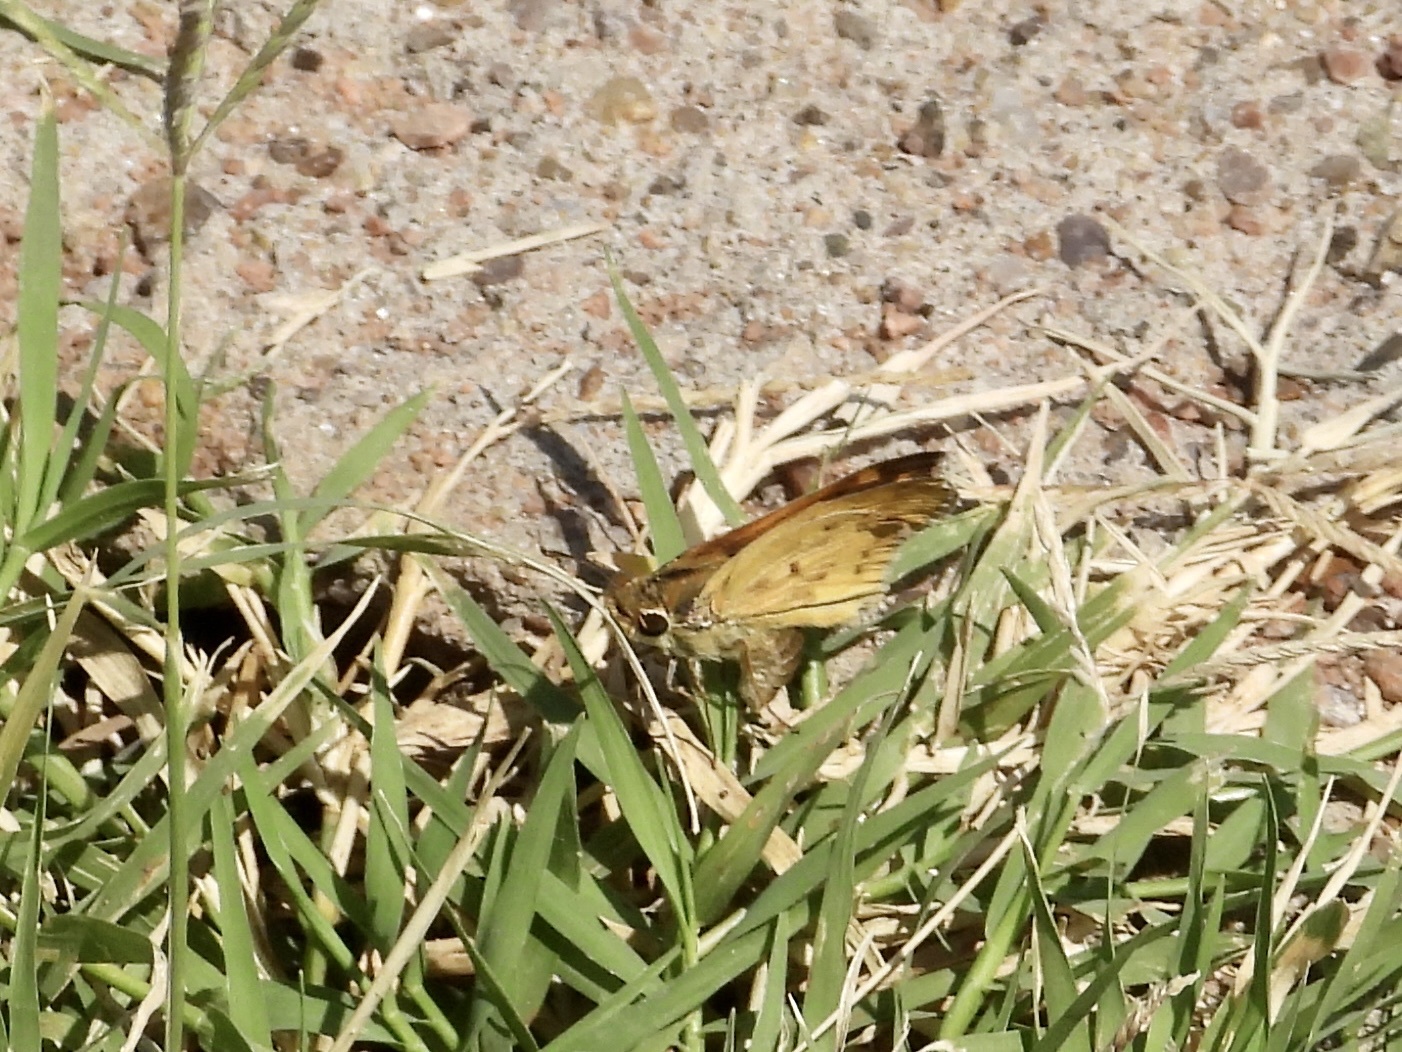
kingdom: Animalia
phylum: Arthropoda
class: Insecta
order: Lepidoptera
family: Hesperiidae
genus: Hylephila
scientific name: Hylephila phyleus
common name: Fiery skipper
